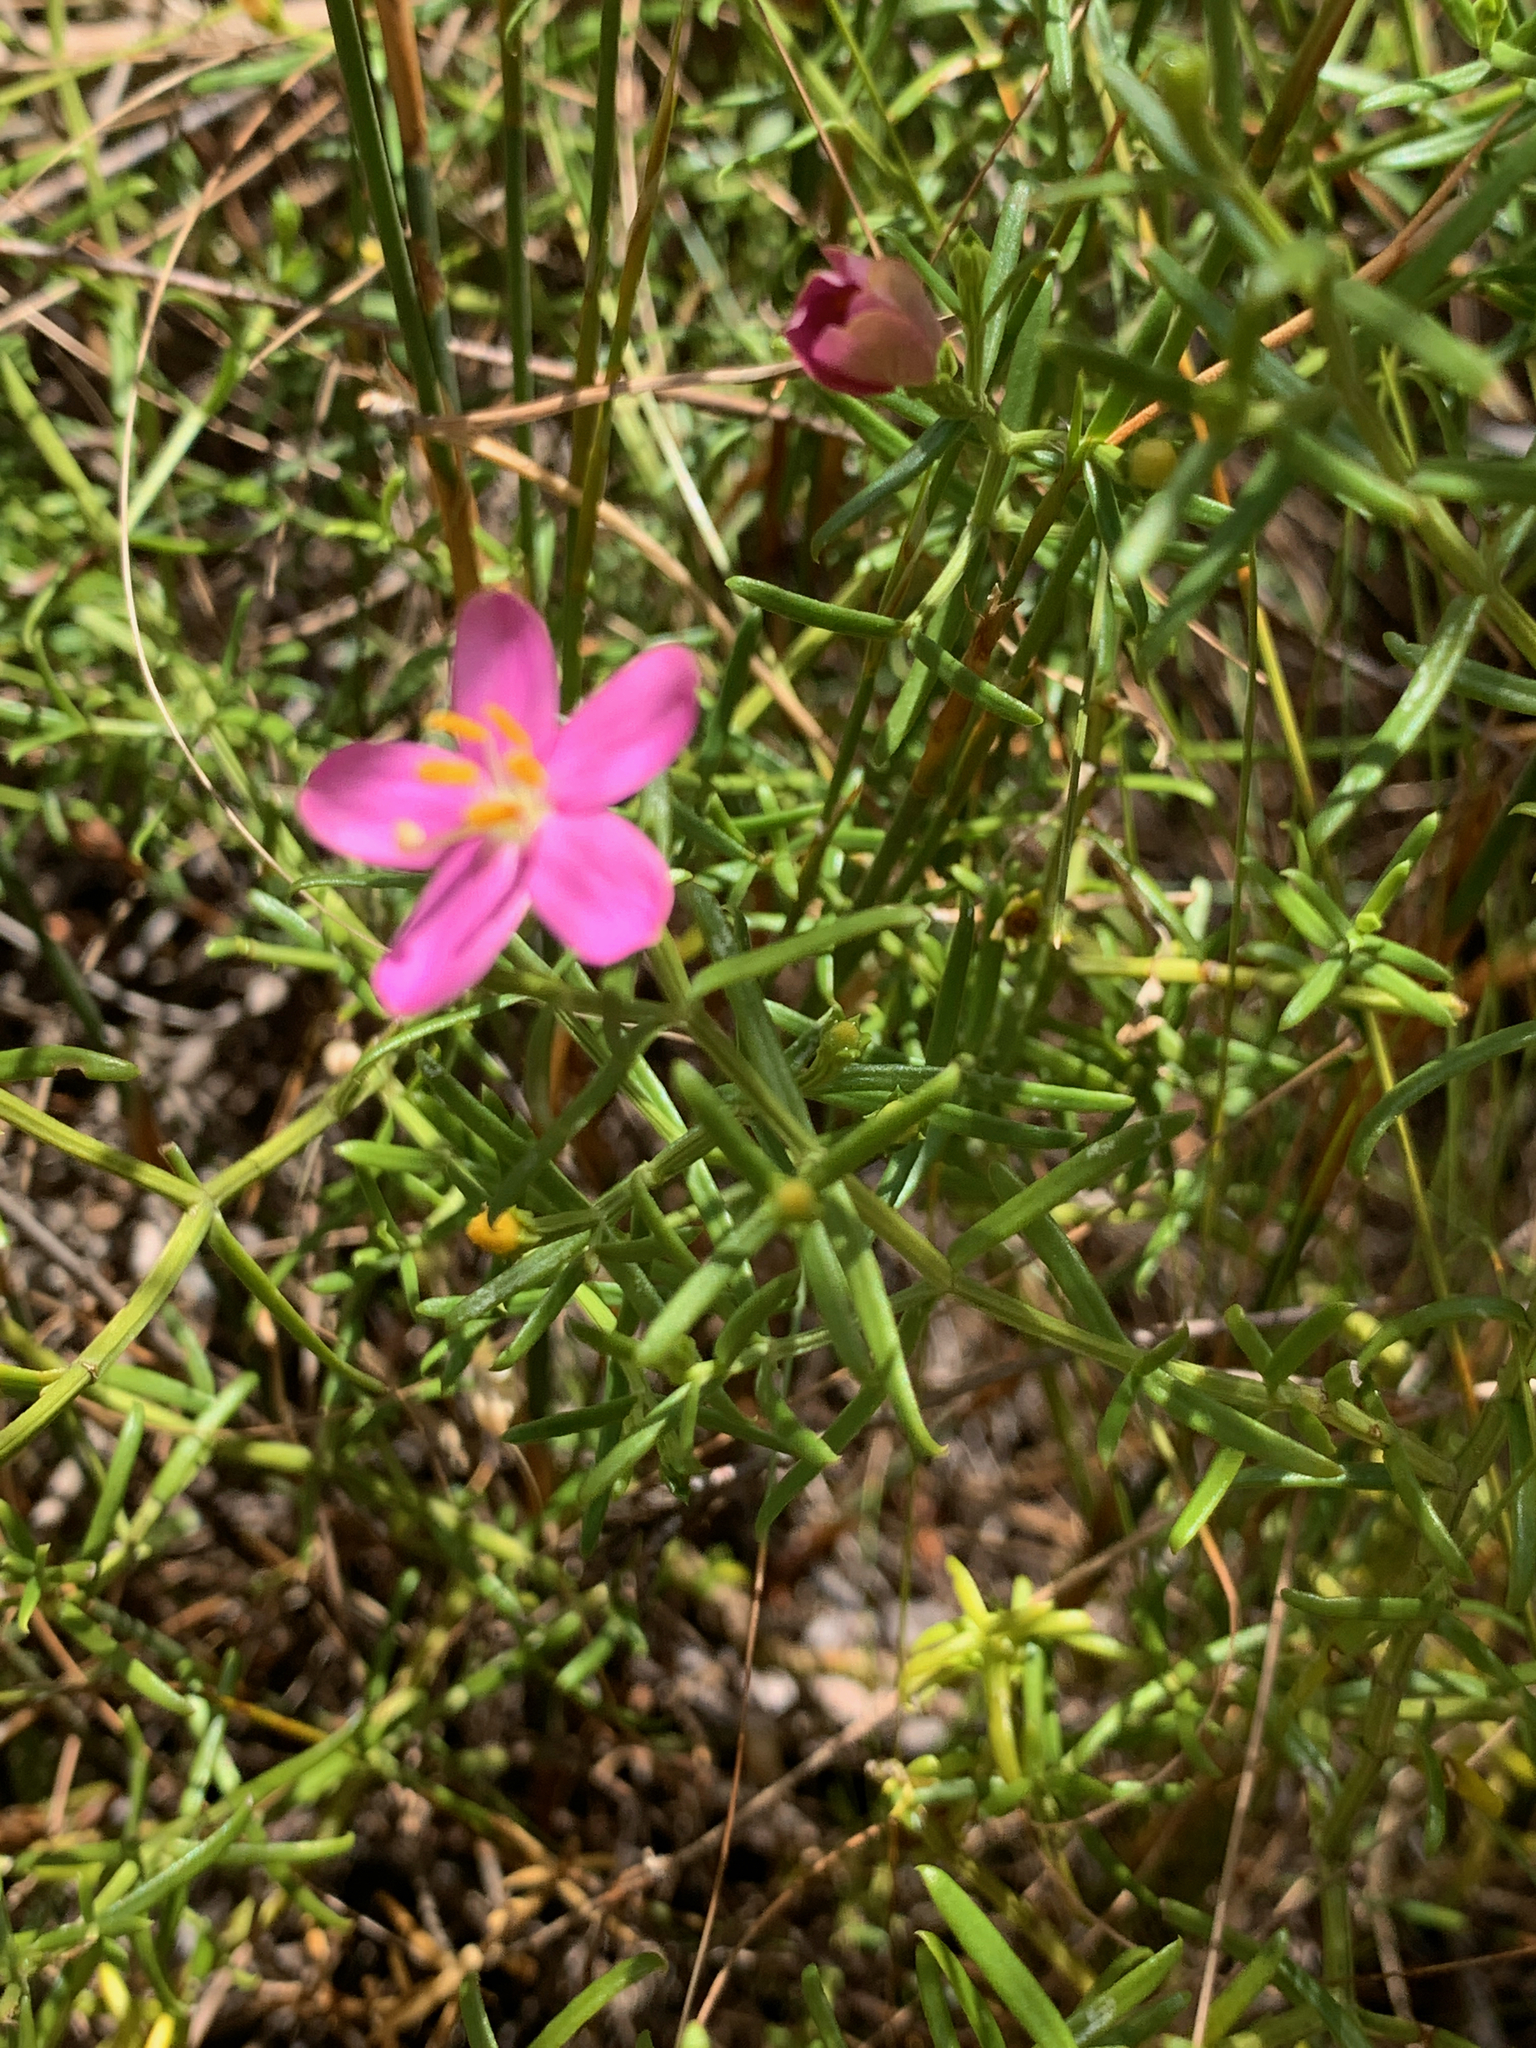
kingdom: Plantae
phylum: Tracheophyta
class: Magnoliopsida
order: Gentianales
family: Gentianaceae
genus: Chironia
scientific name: Chironia baccifera
